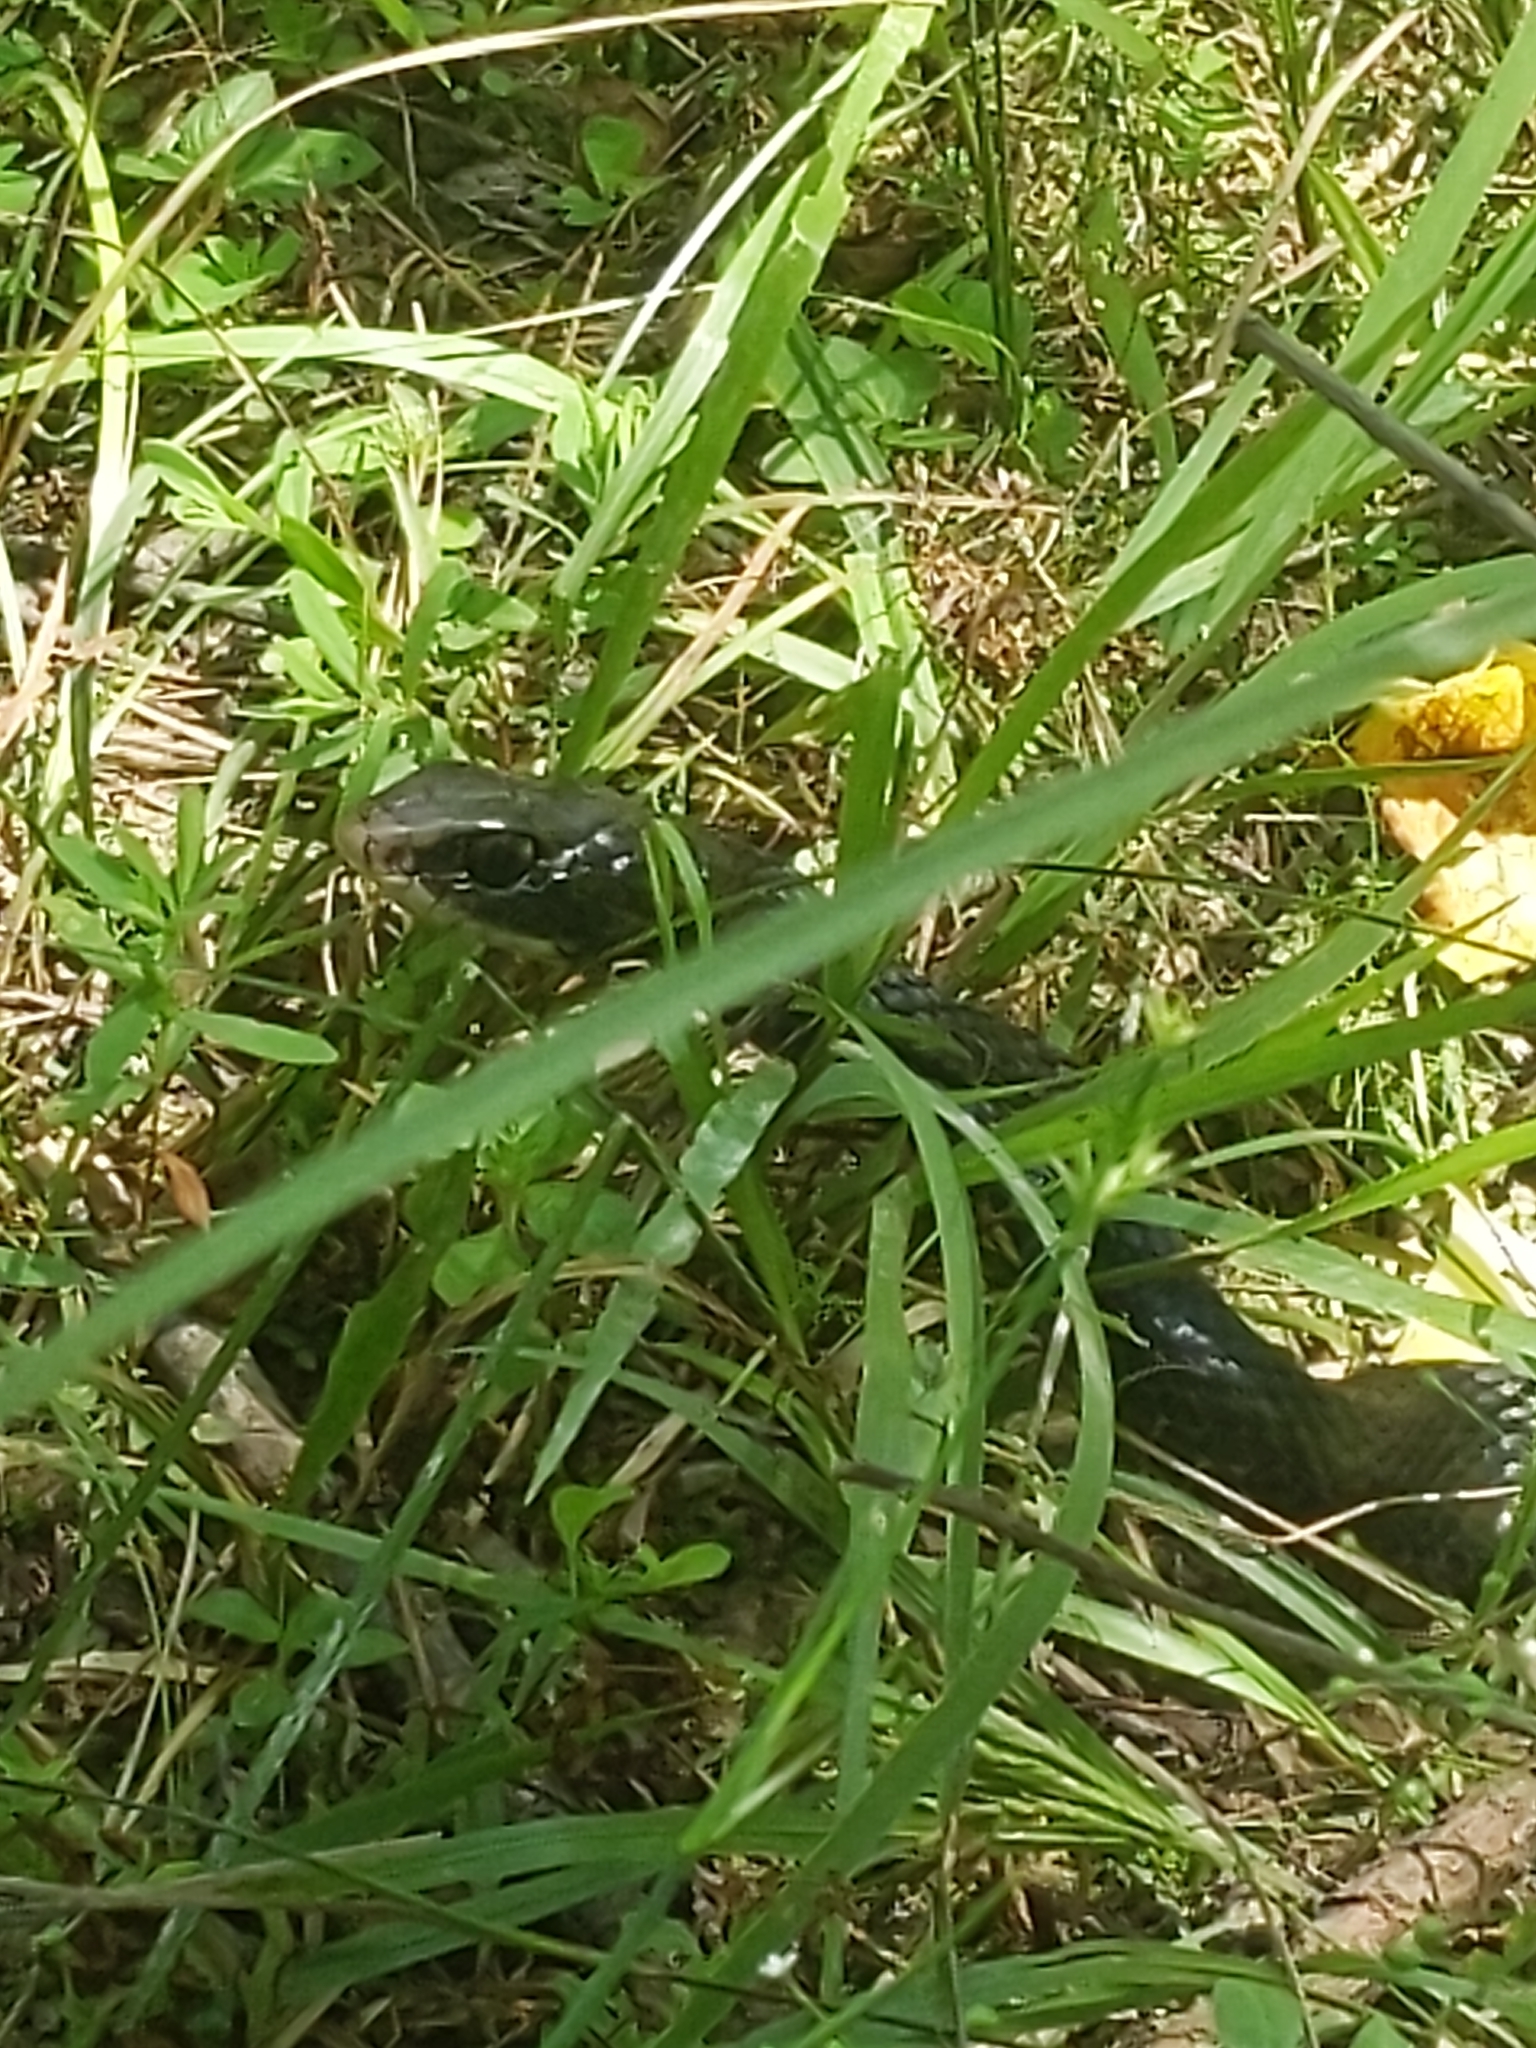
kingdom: Animalia
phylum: Chordata
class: Squamata
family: Colubridae
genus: Coluber
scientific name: Coluber constrictor
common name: Eastern racer
